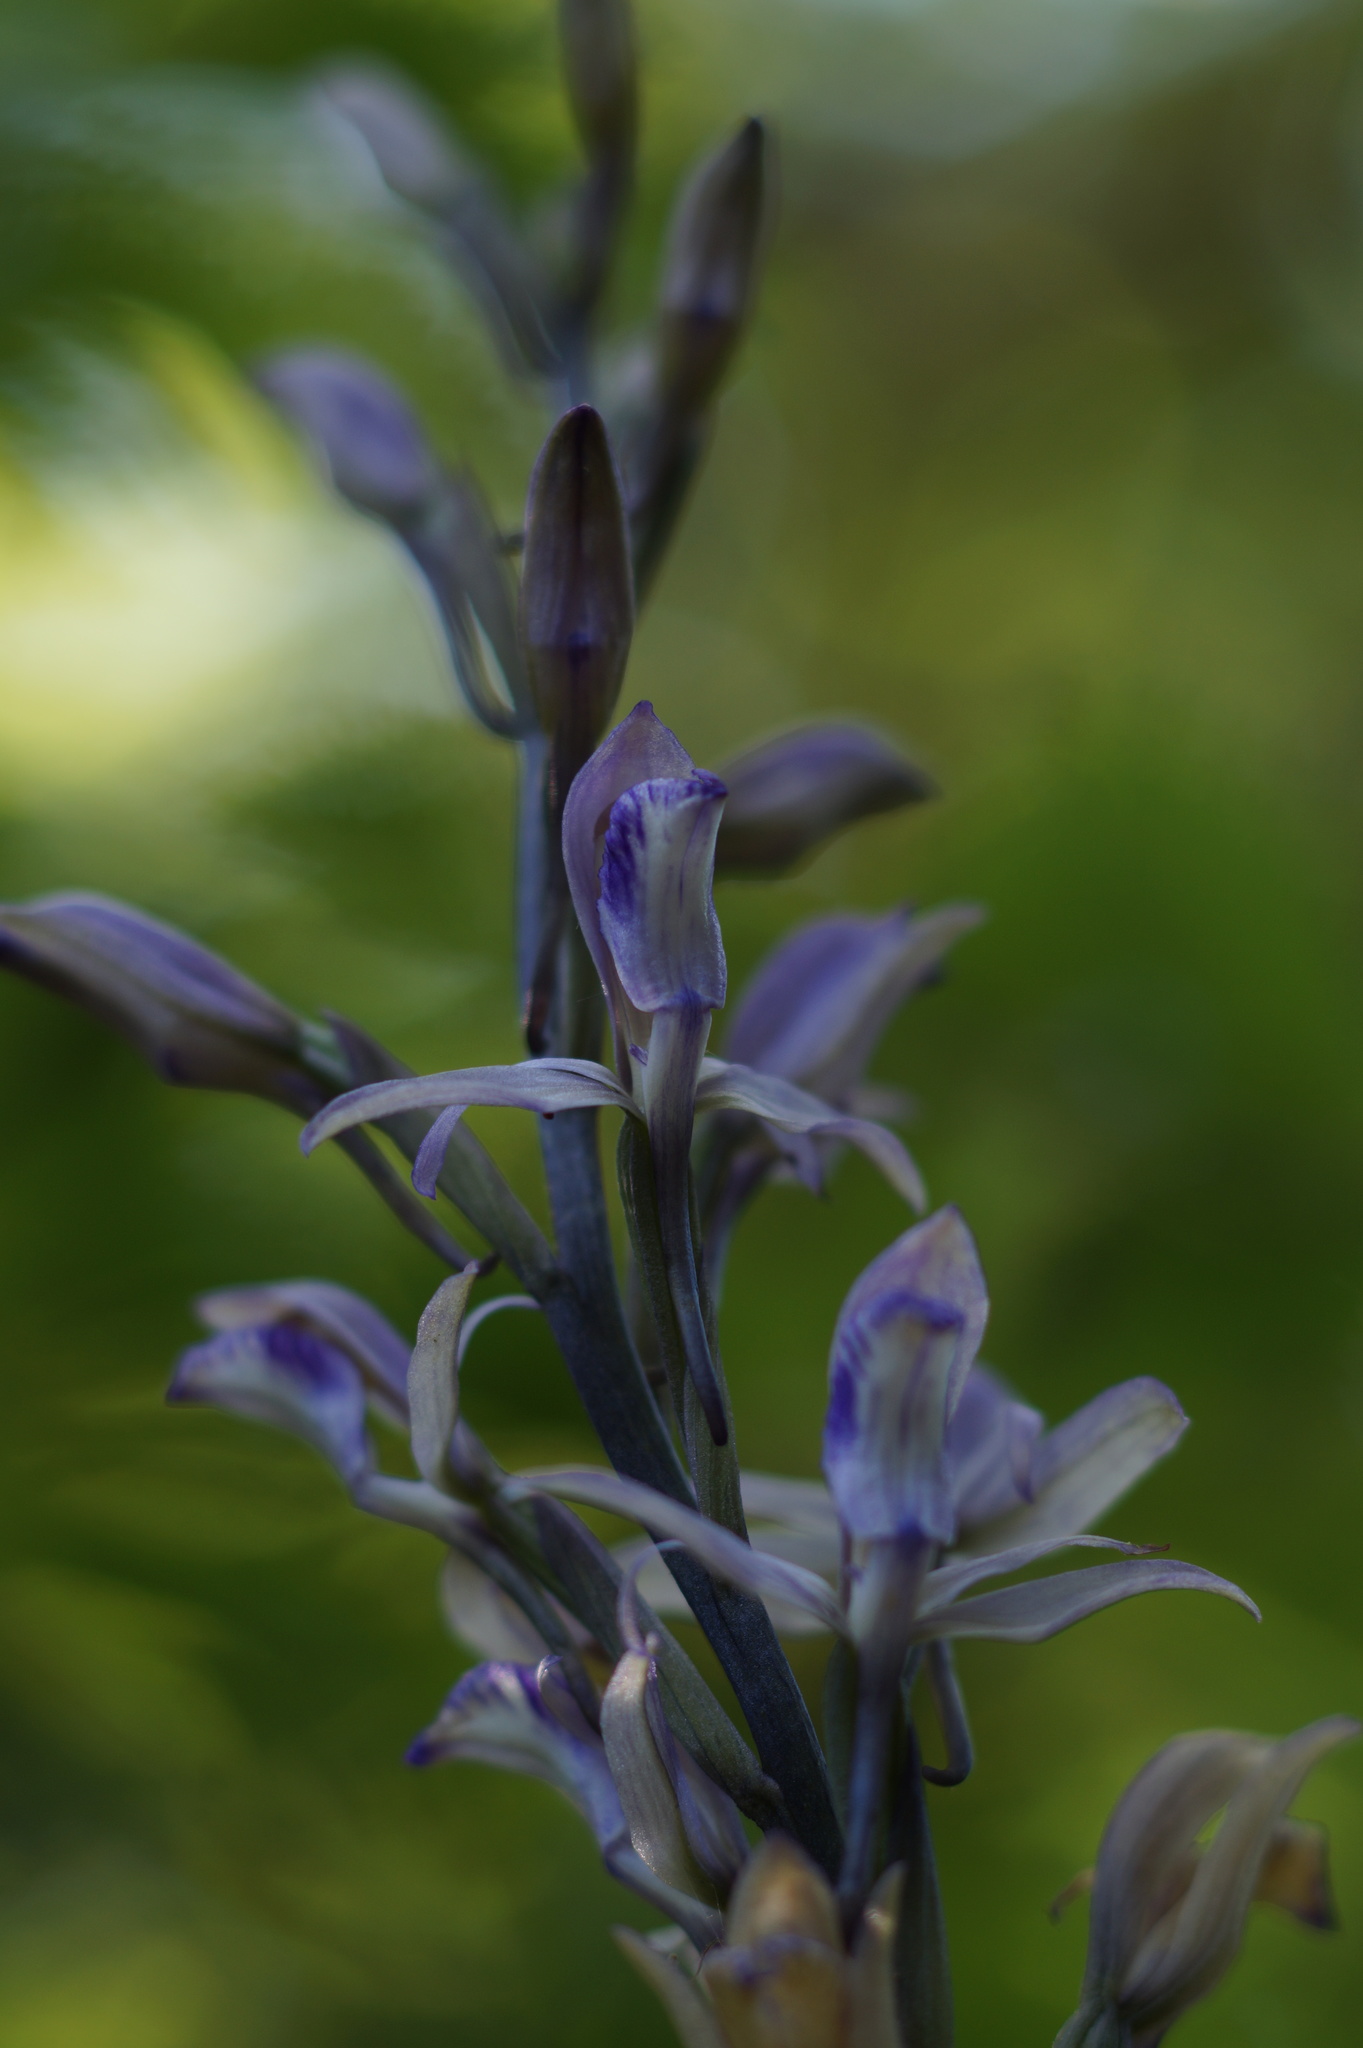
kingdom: Plantae
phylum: Tracheophyta
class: Liliopsida
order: Asparagales
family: Orchidaceae
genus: Limodorum
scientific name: Limodorum abortivum
